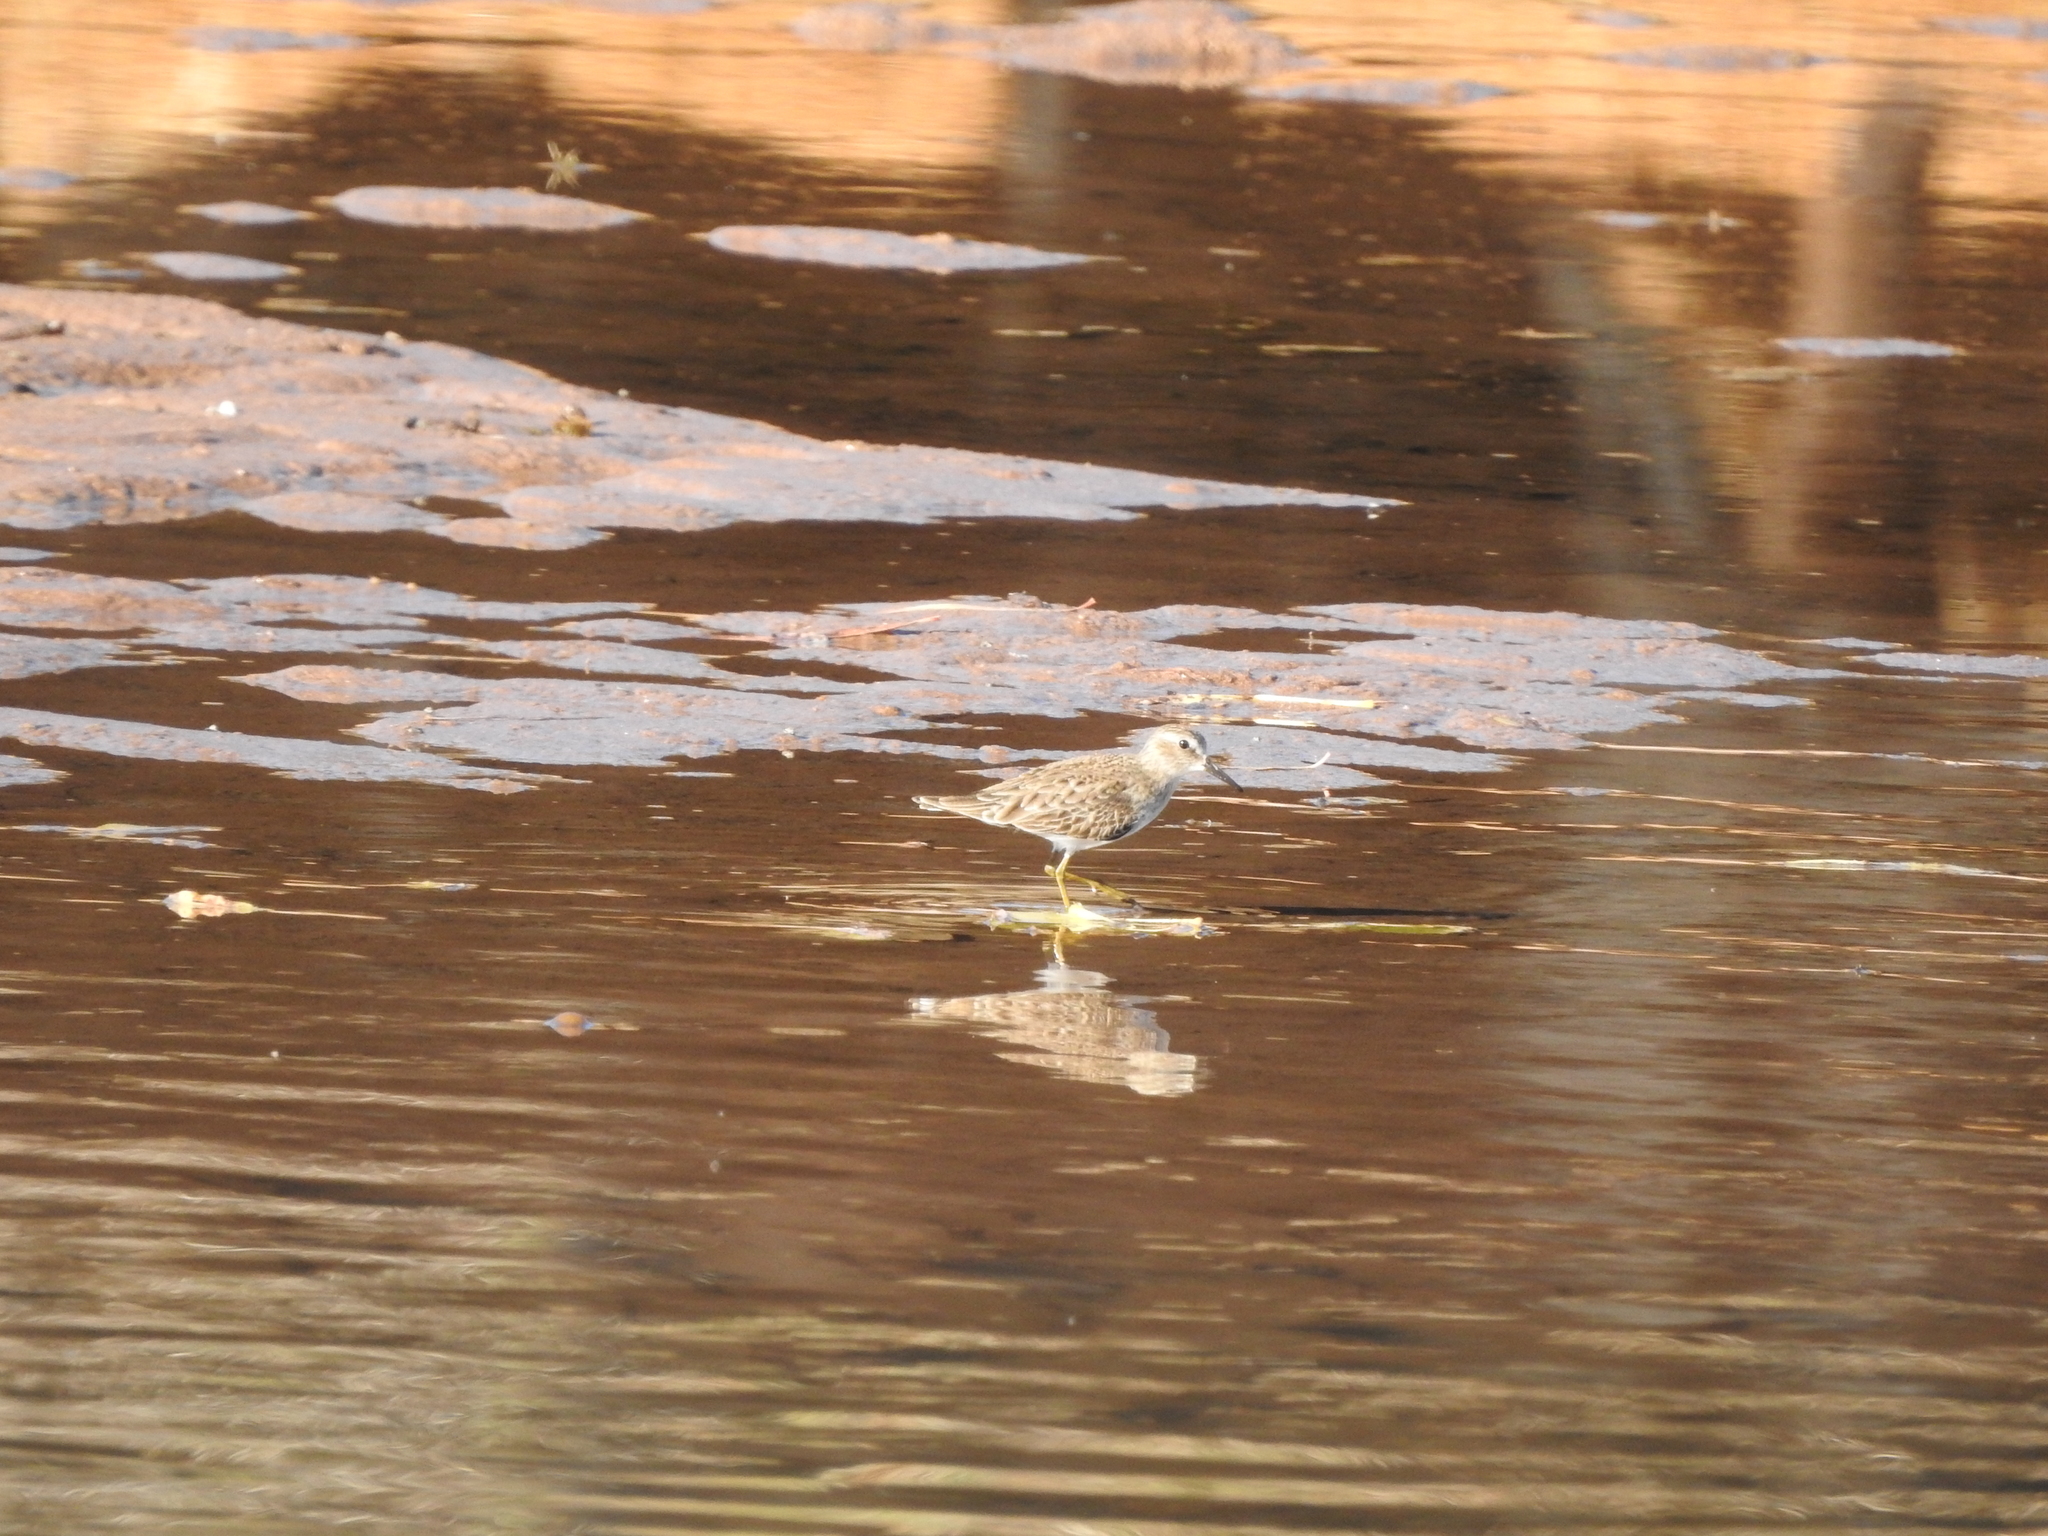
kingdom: Animalia
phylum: Chordata
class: Aves
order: Charadriiformes
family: Scolopacidae
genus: Calidris
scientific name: Calidris minutilla
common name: Least sandpiper
